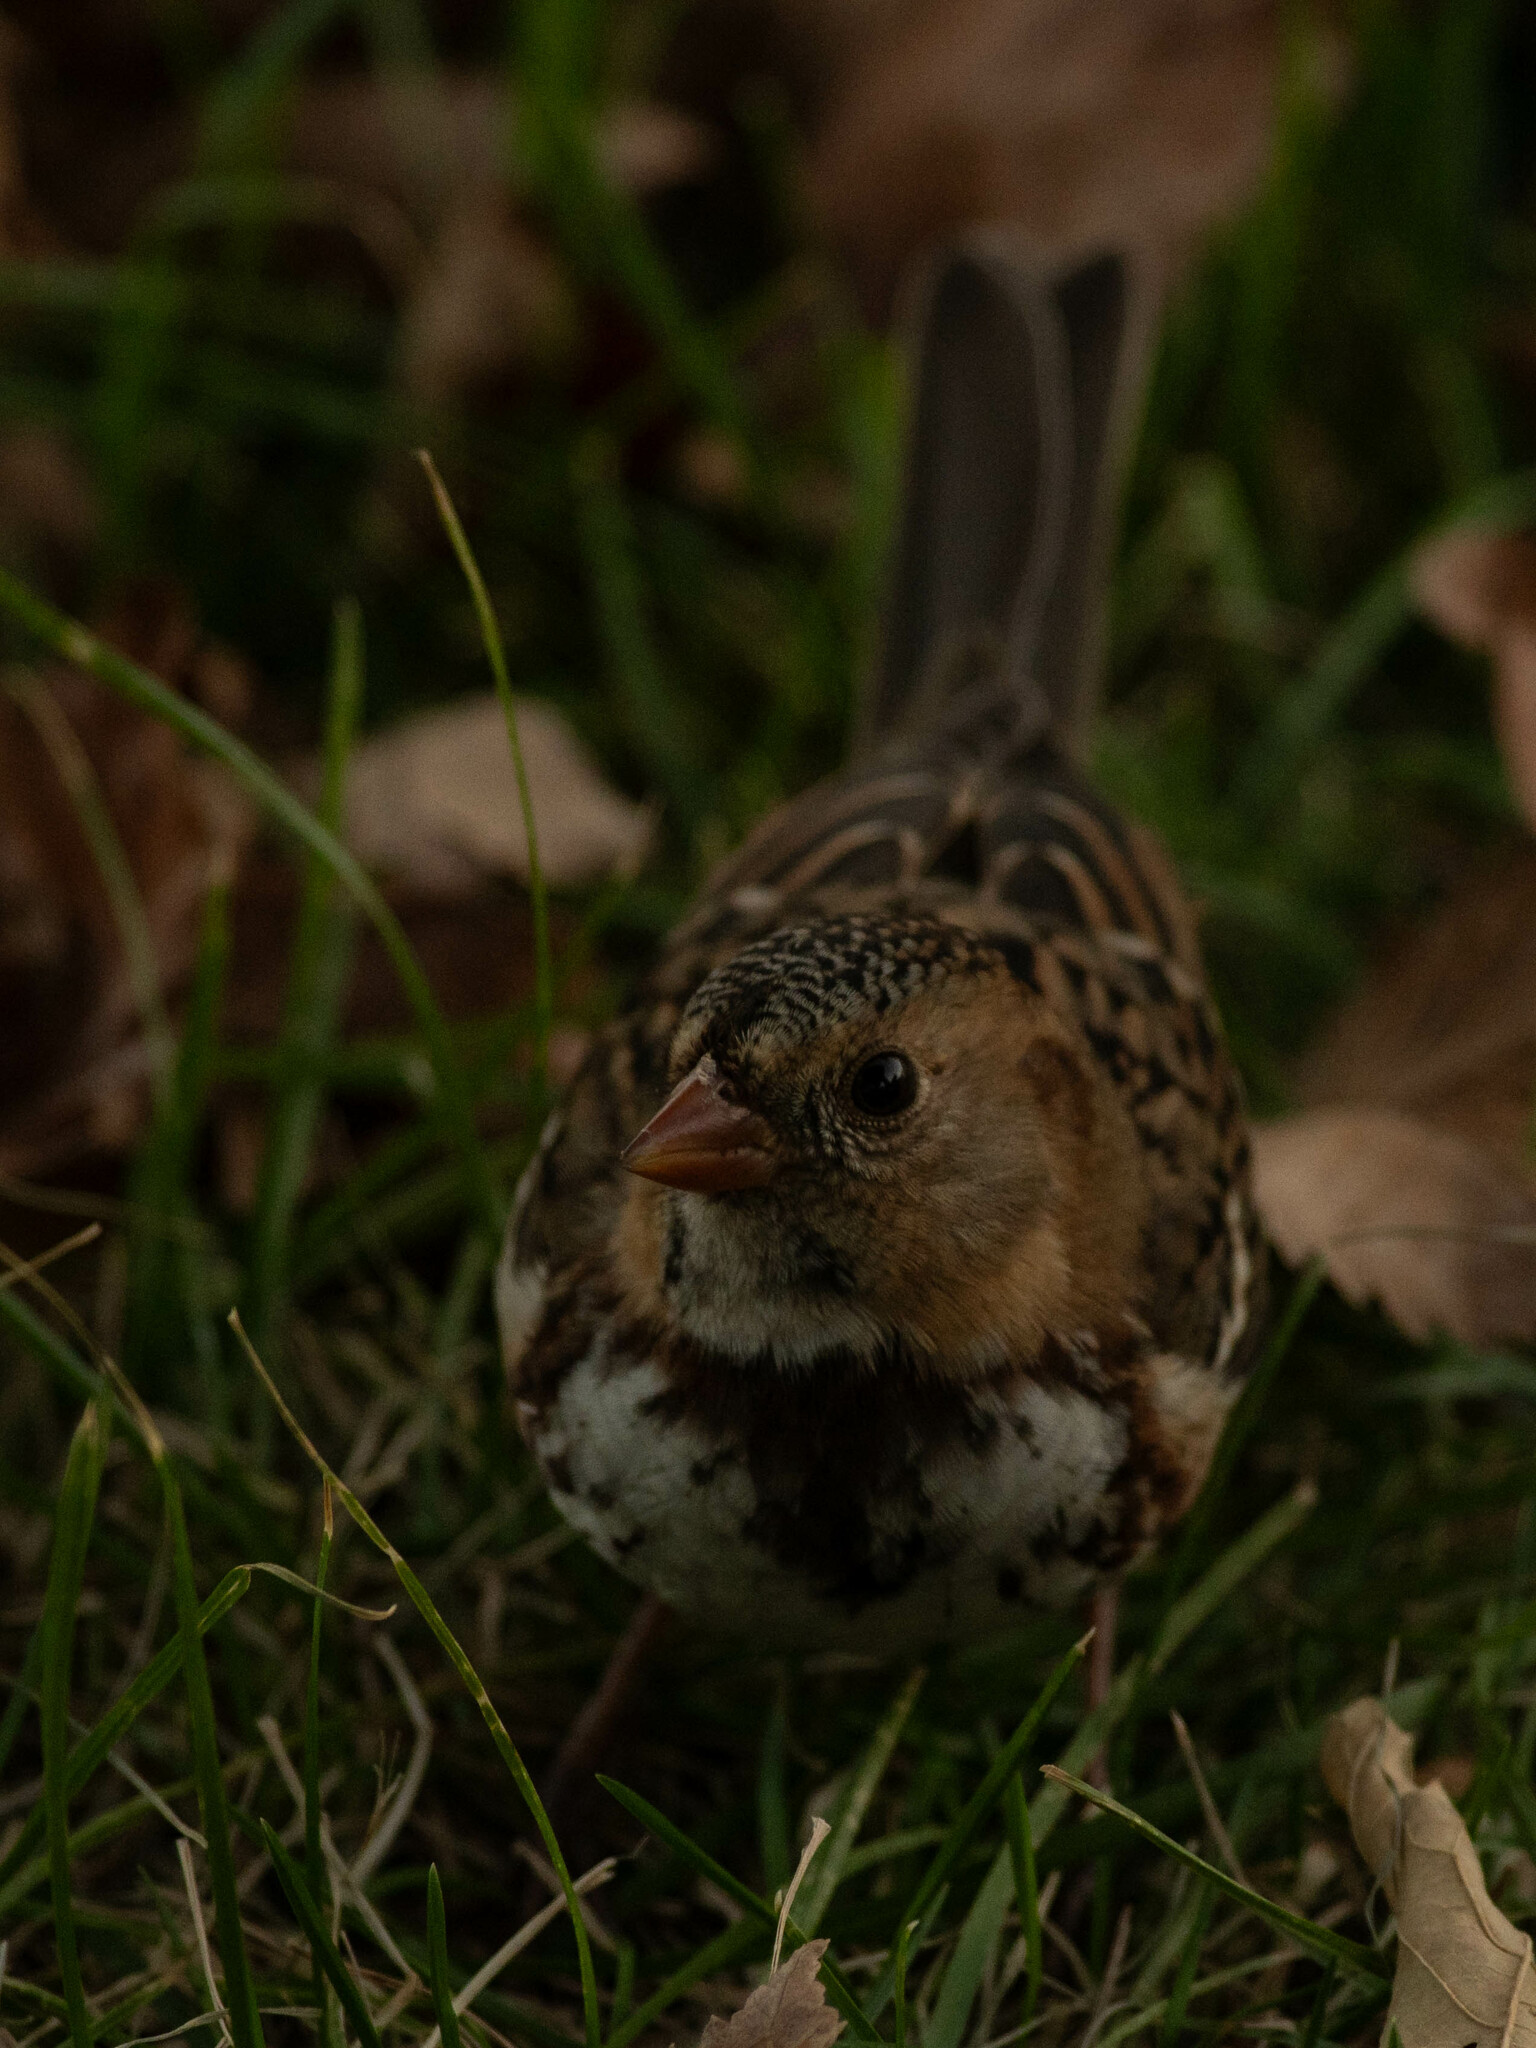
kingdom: Animalia
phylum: Chordata
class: Aves
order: Passeriformes
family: Passerellidae
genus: Zonotrichia
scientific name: Zonotrichia querula
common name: Harris's sparrow
